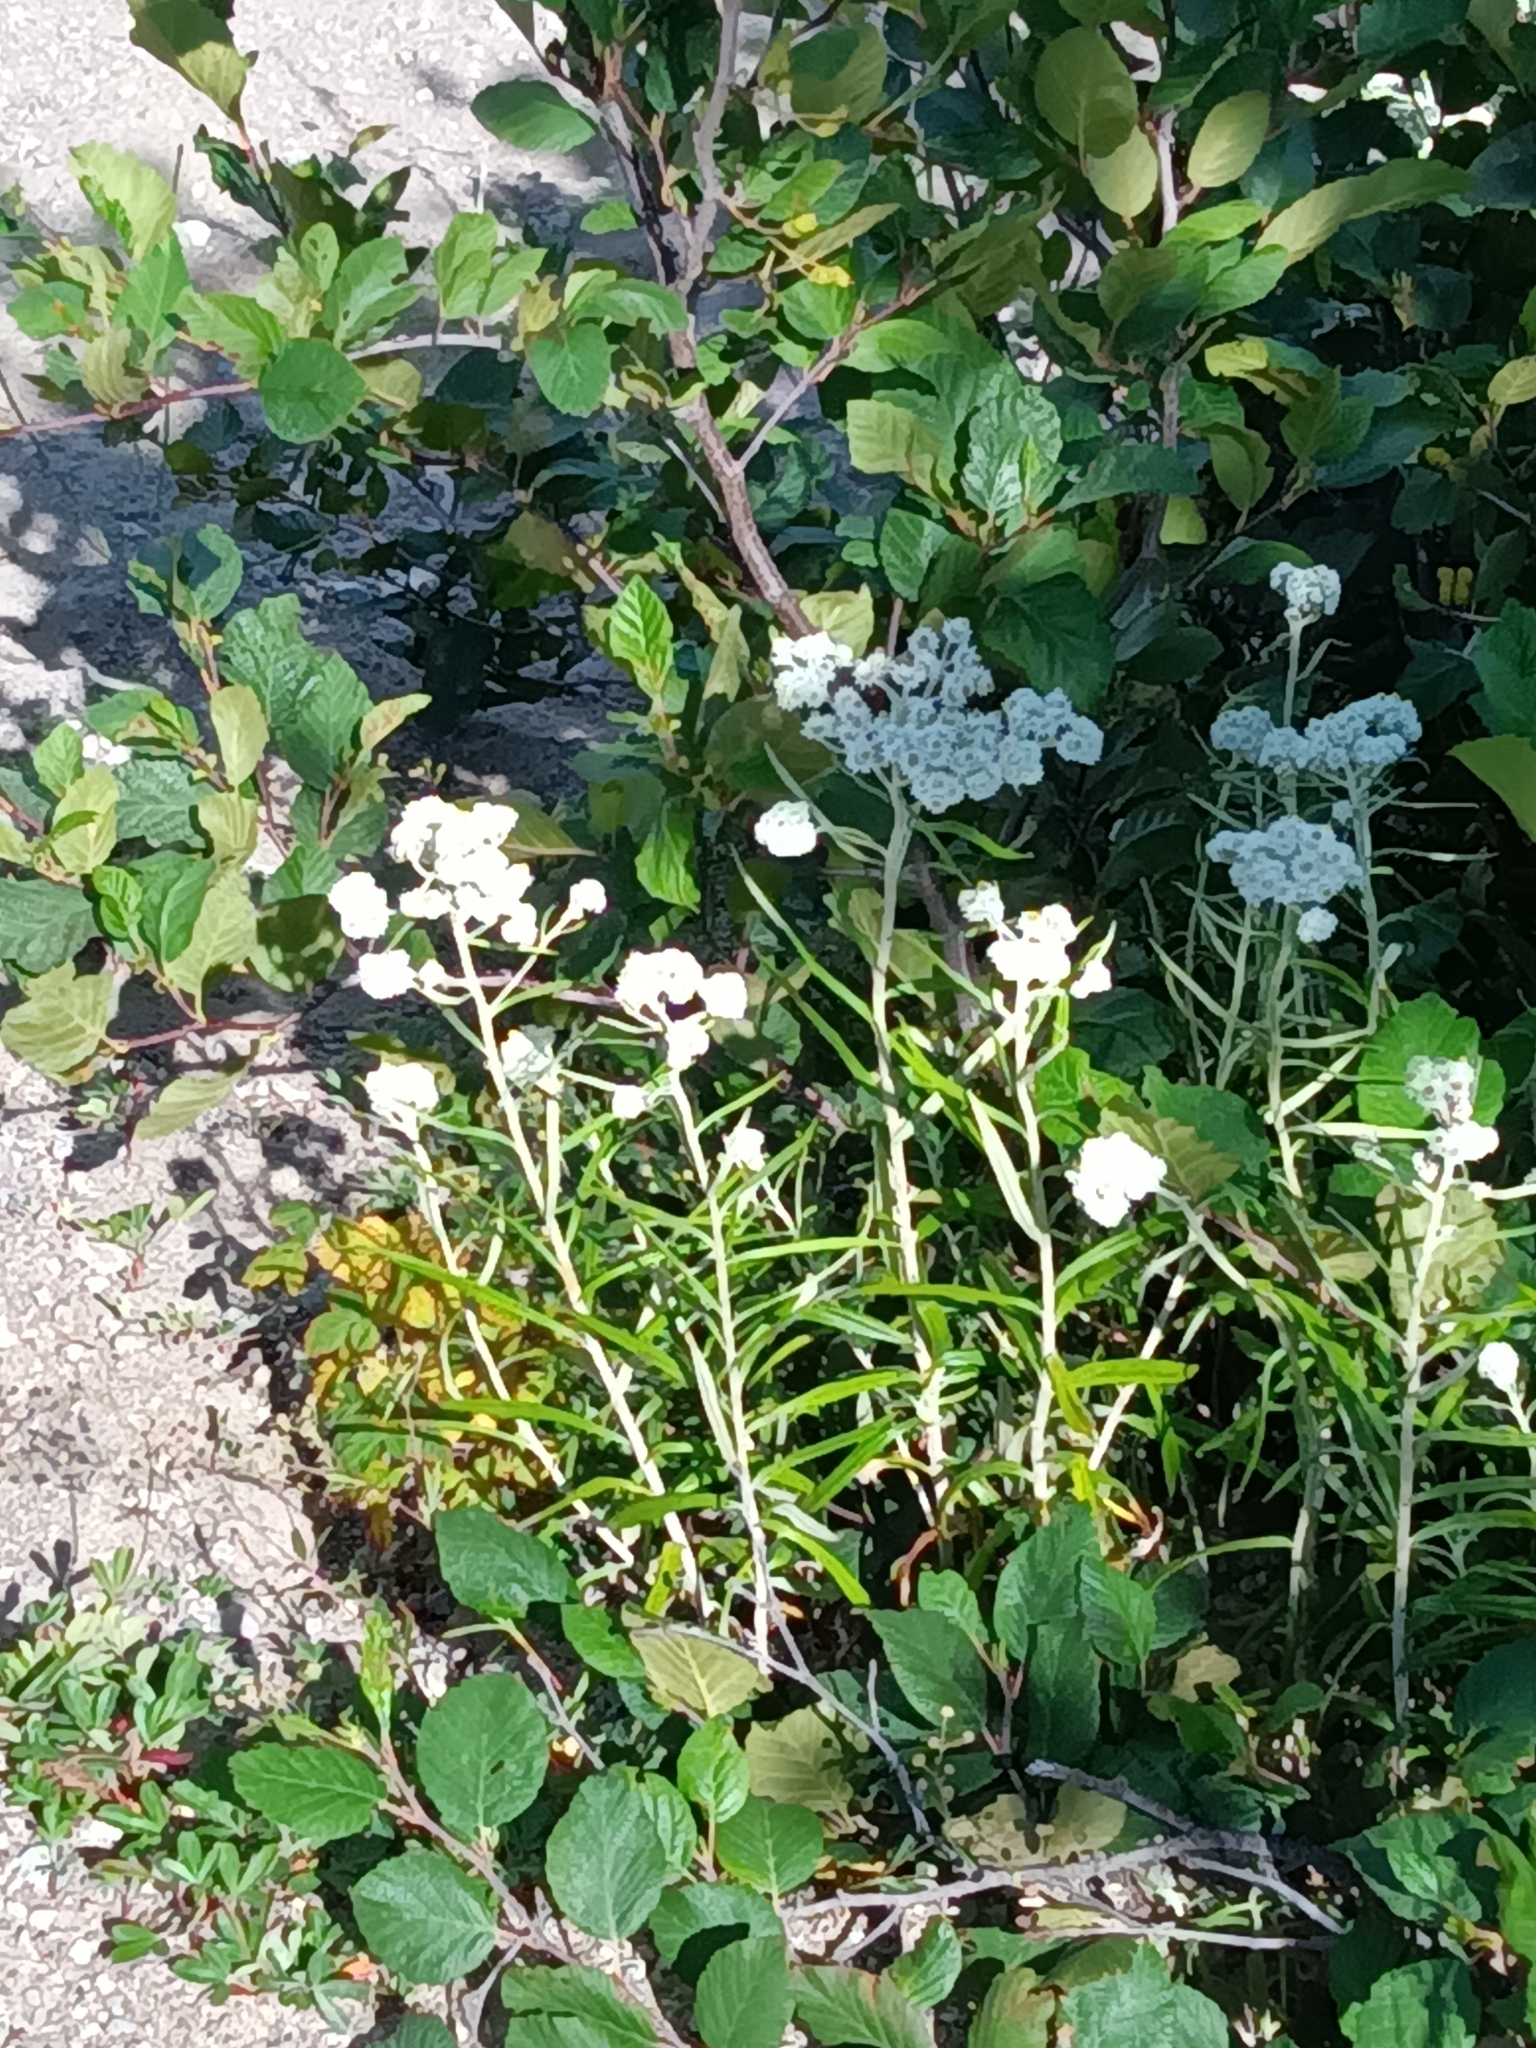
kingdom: Plantae
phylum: Tracheophyta
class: Magnoliopsida
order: Asterales
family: Asteraceae
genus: Anaphalis
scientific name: Anaphalis margaritacea
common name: Pearly everlasting
